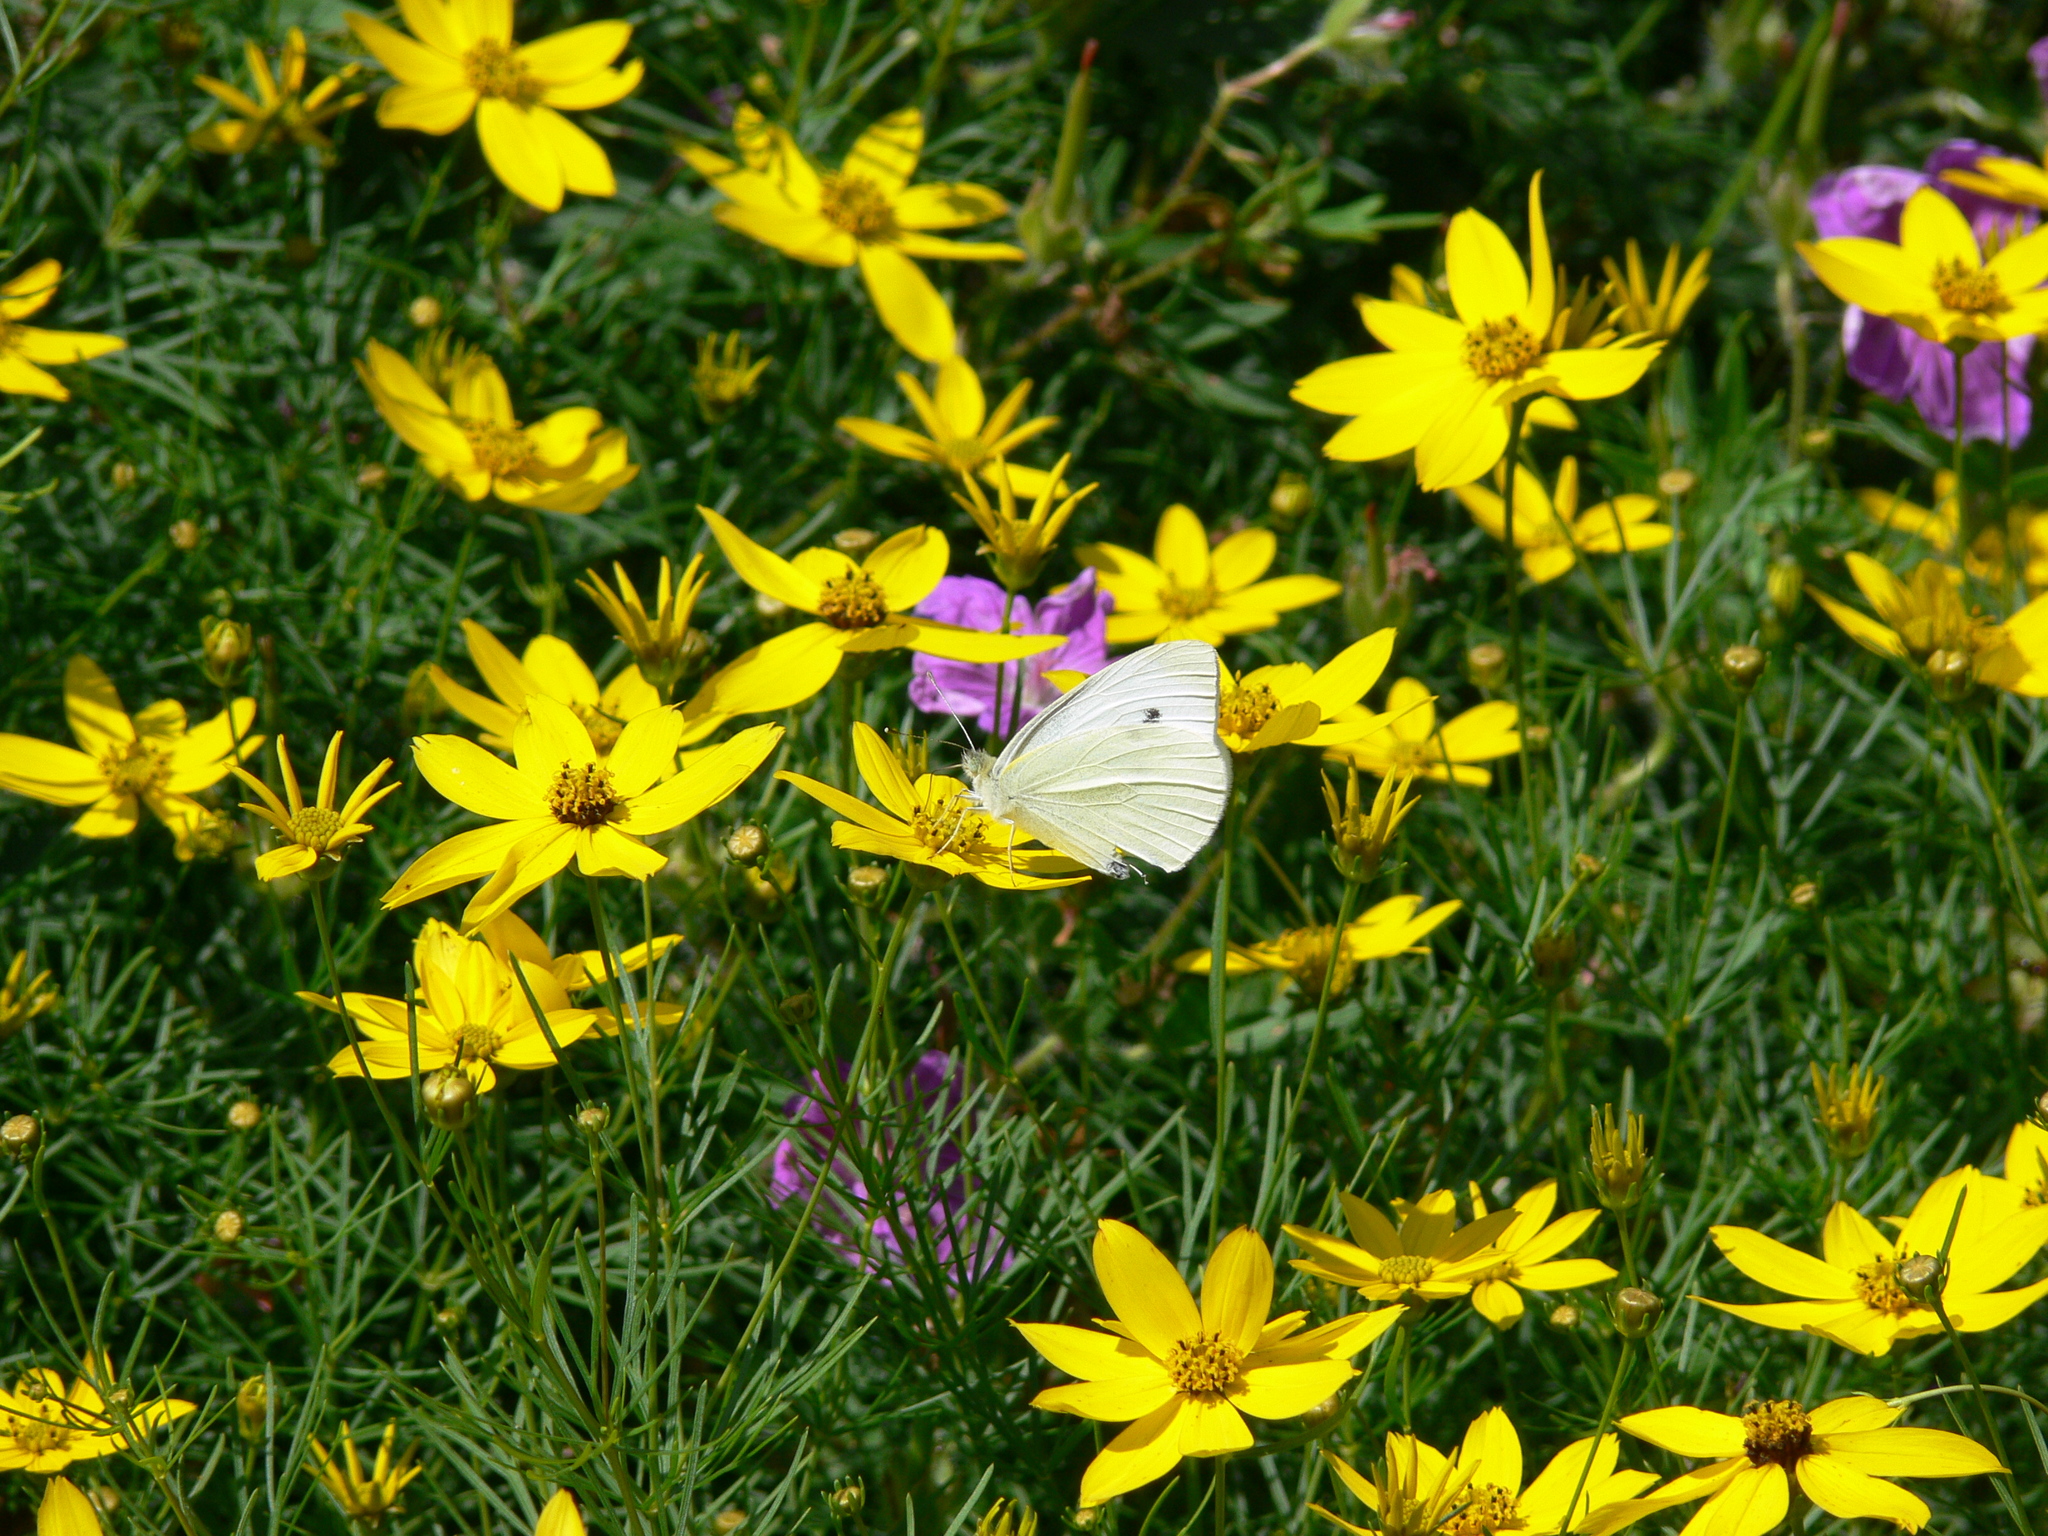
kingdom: Animalia
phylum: Arthropoda
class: Insecta
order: Lepidoptera
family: Pieridae
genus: Pieris
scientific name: Pieris rapae
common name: Small white
